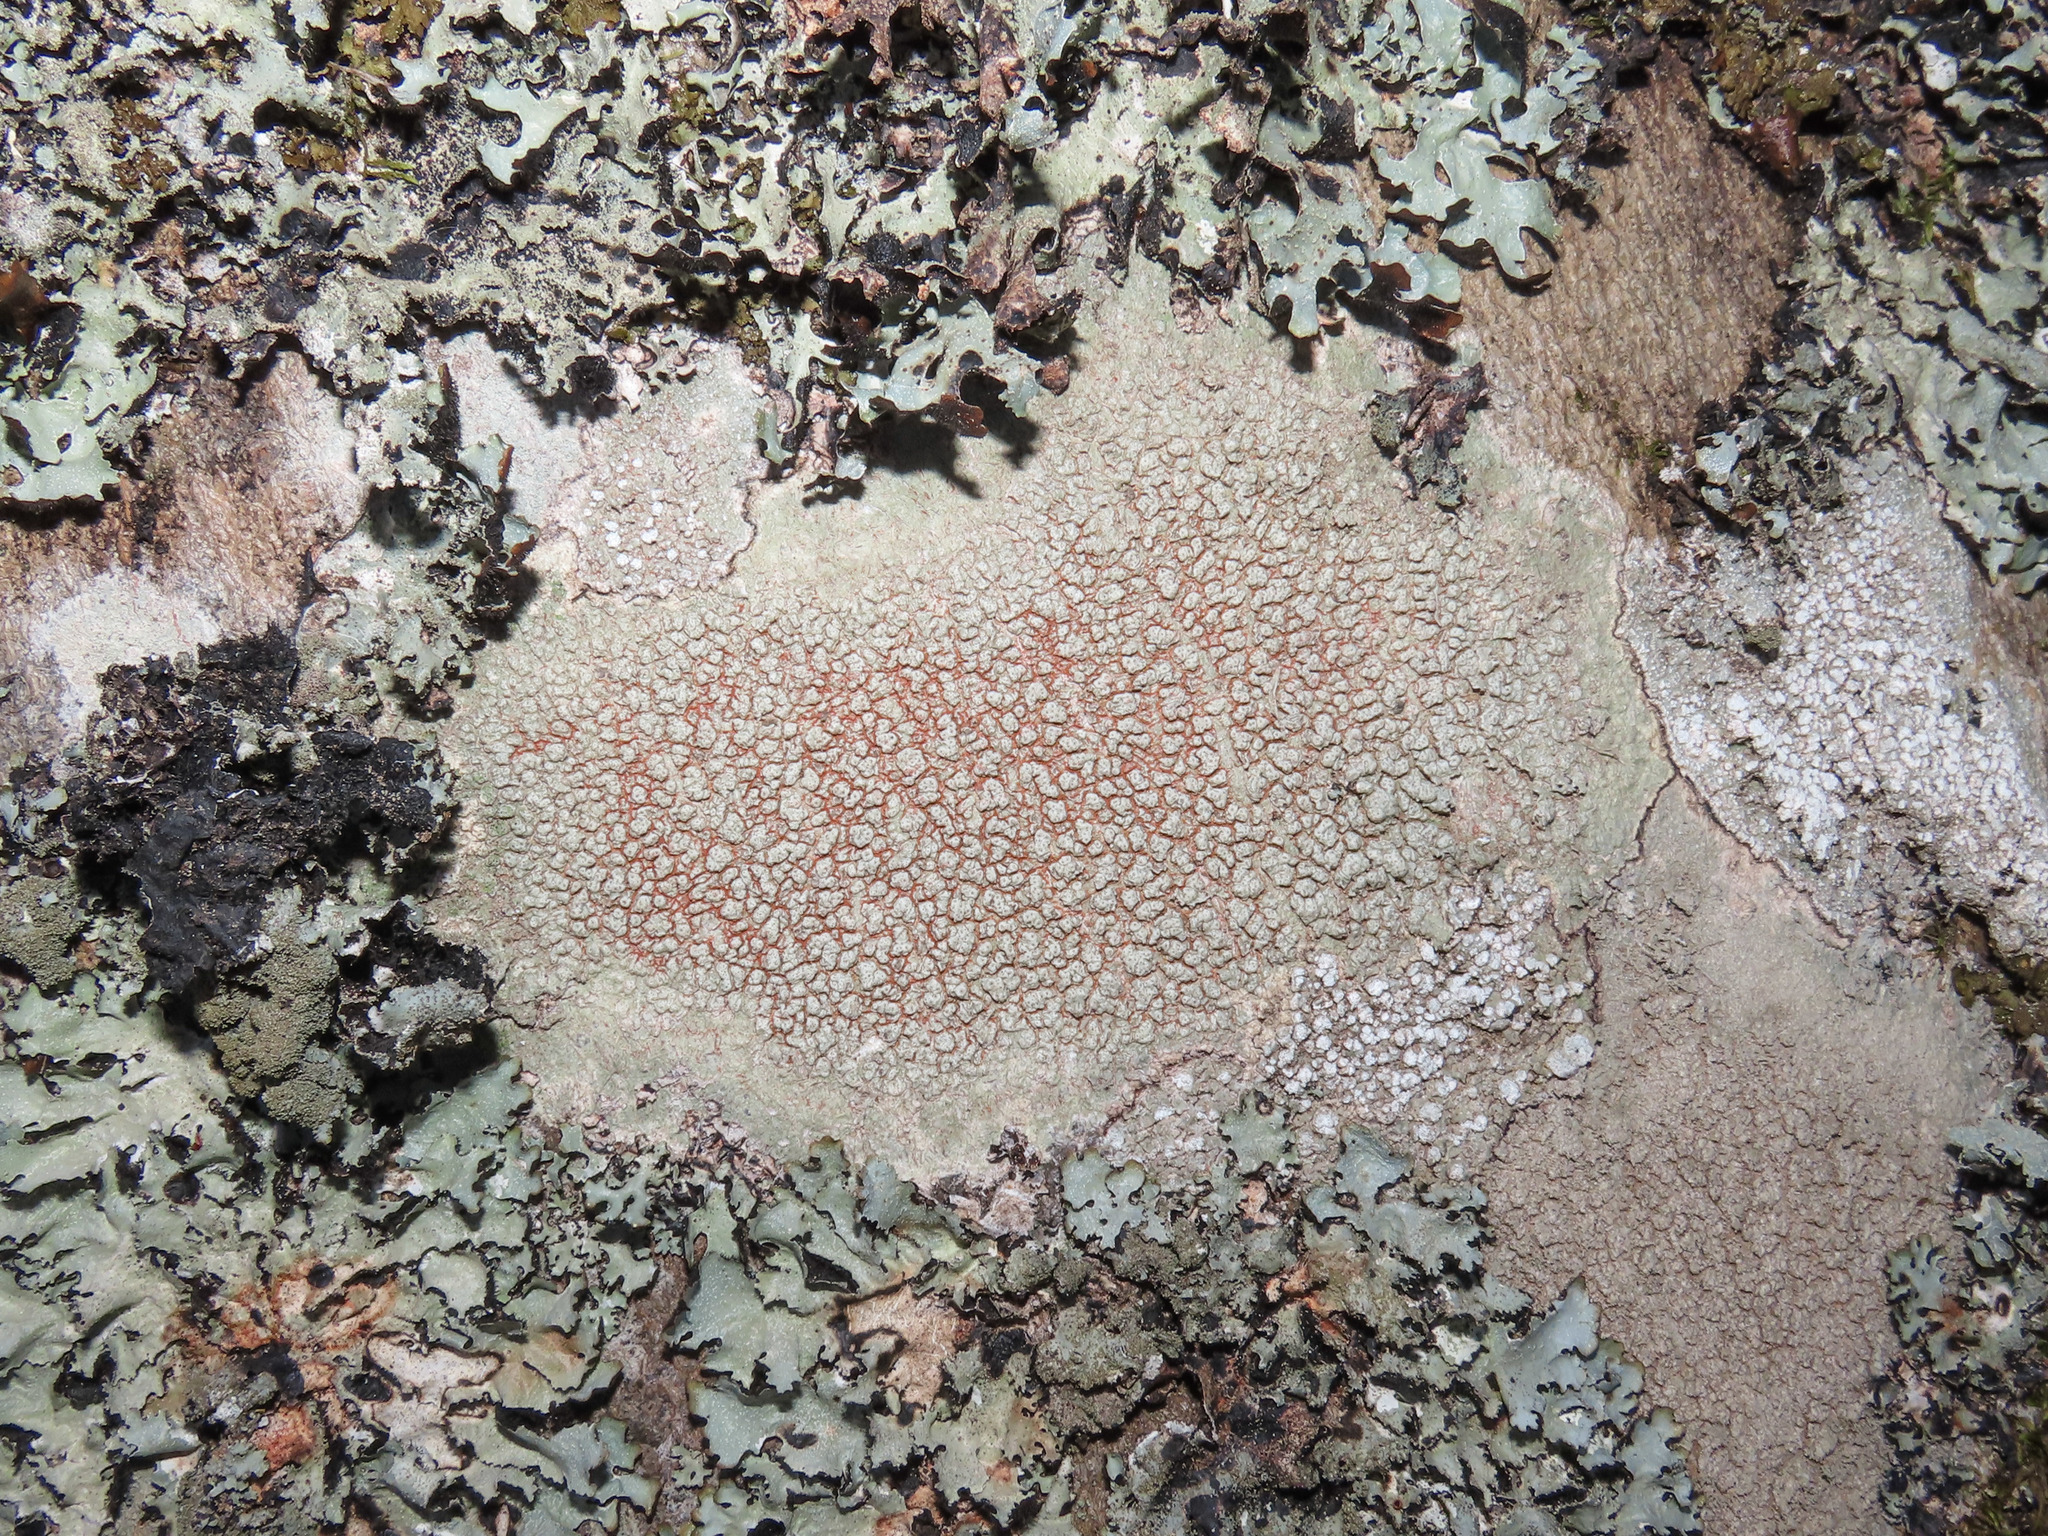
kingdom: Fungi
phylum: Ascomycota
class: Lecanoromycetes
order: Pertusariales
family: Pertusariaceae
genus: Pertusaria
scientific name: Pertusaria pertusa
